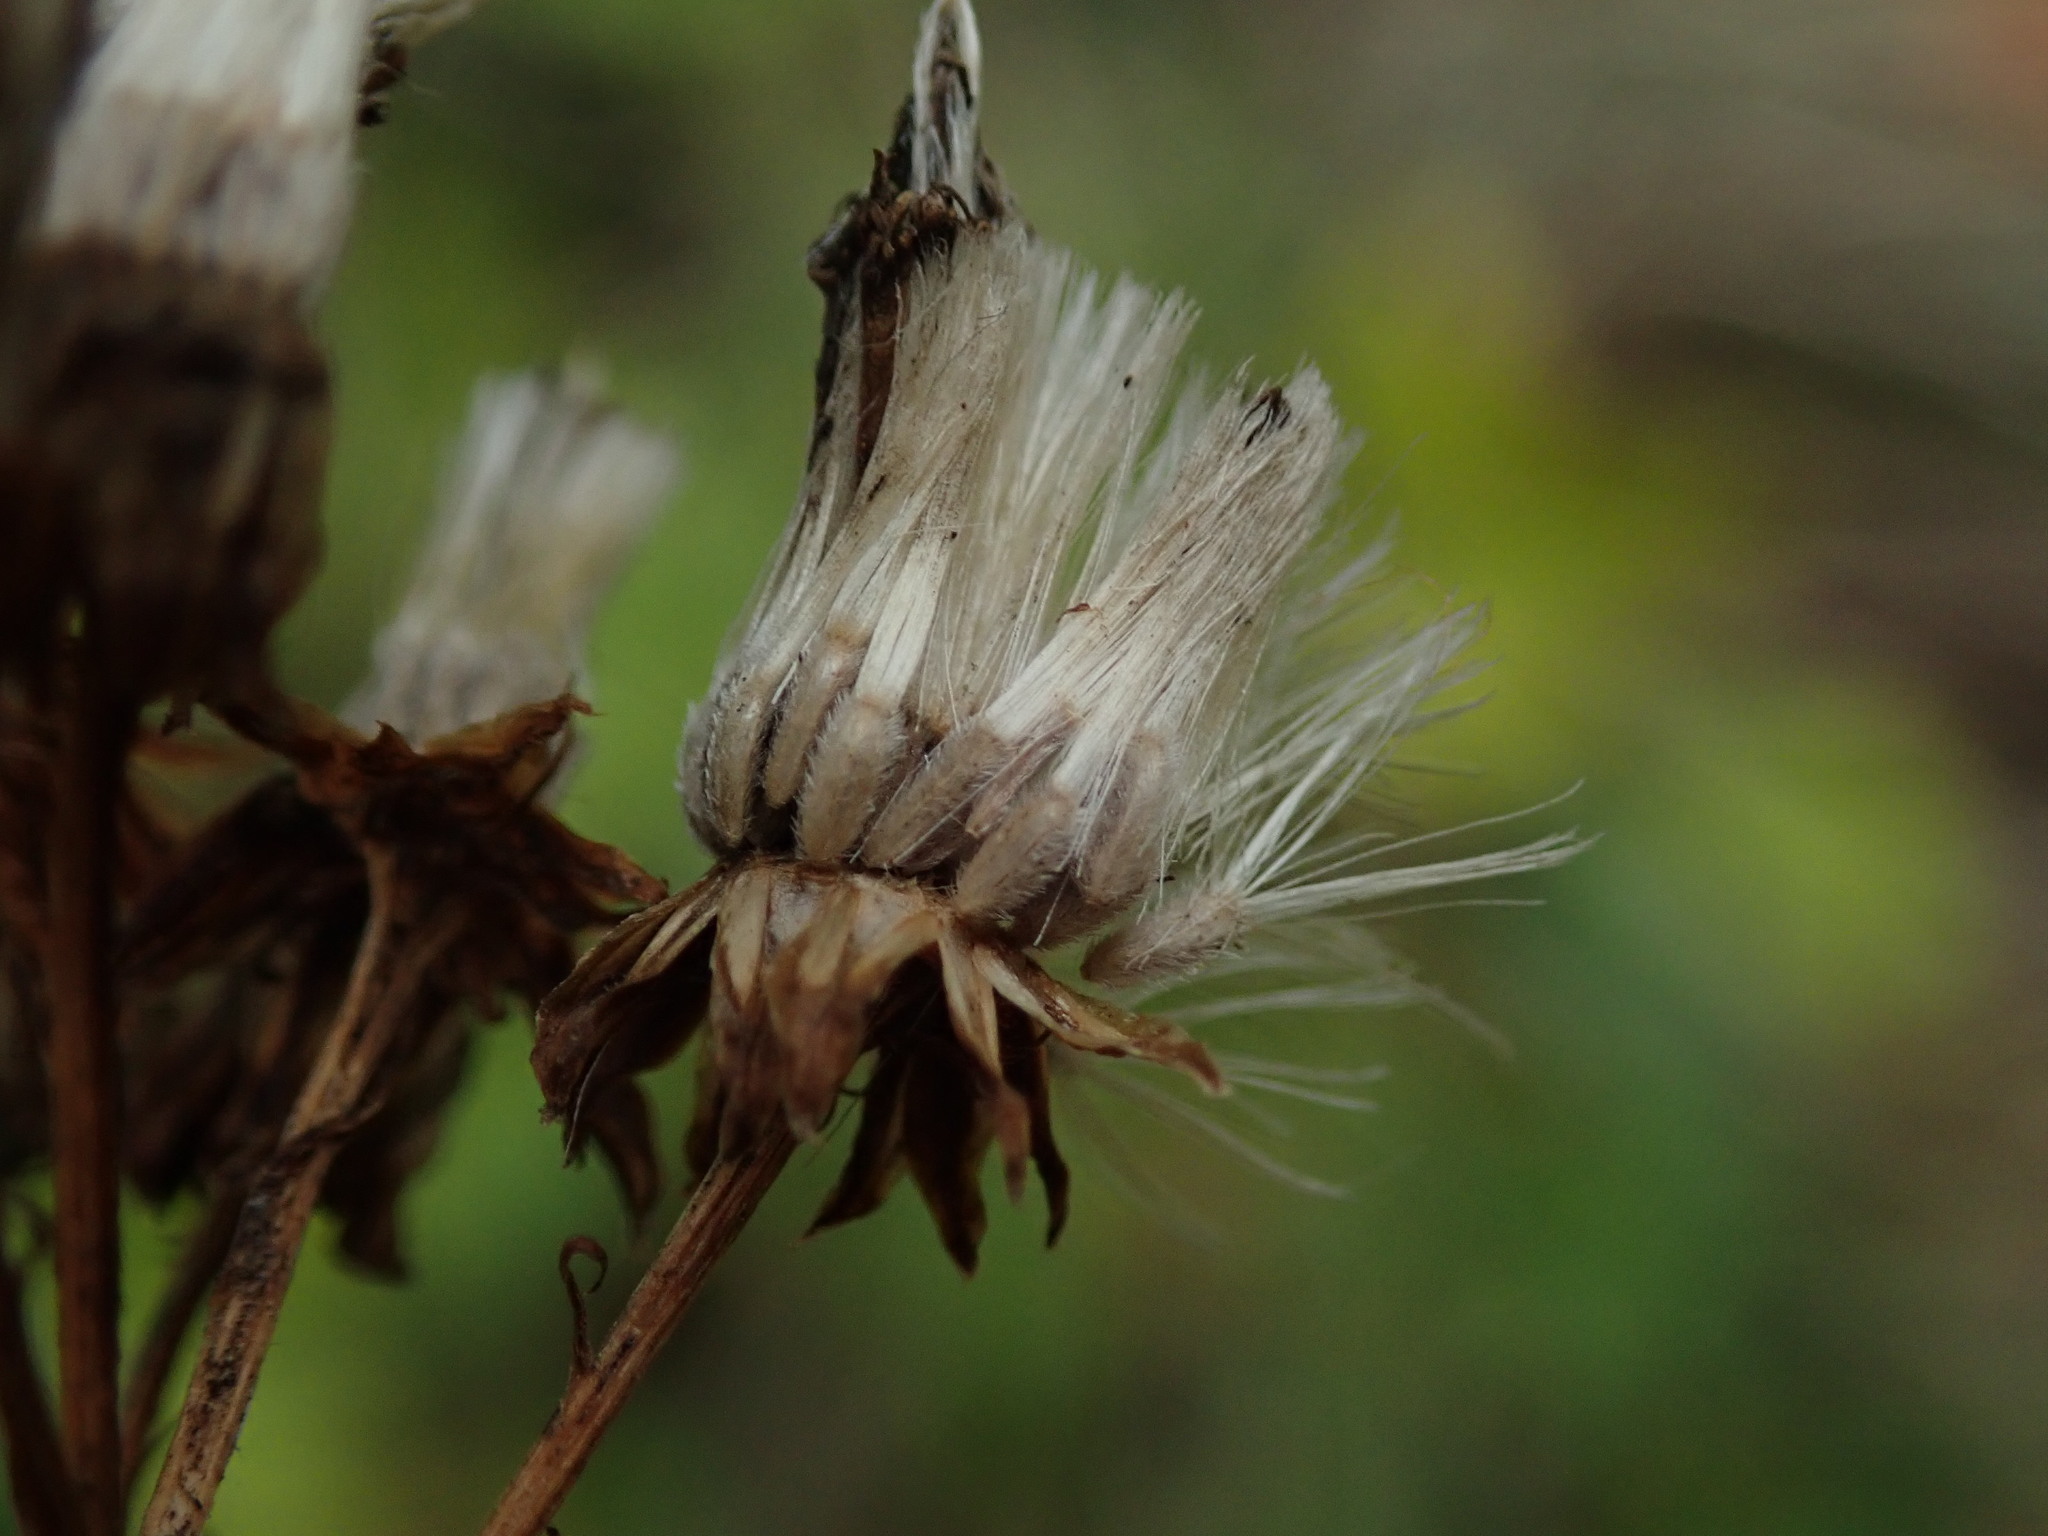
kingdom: Plantae
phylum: Tracheophyta
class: Magnoliopsida
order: Asterales
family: Asteraceae
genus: Jacobaea
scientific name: Jacobaea erucifolia
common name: Hoary ragwort
